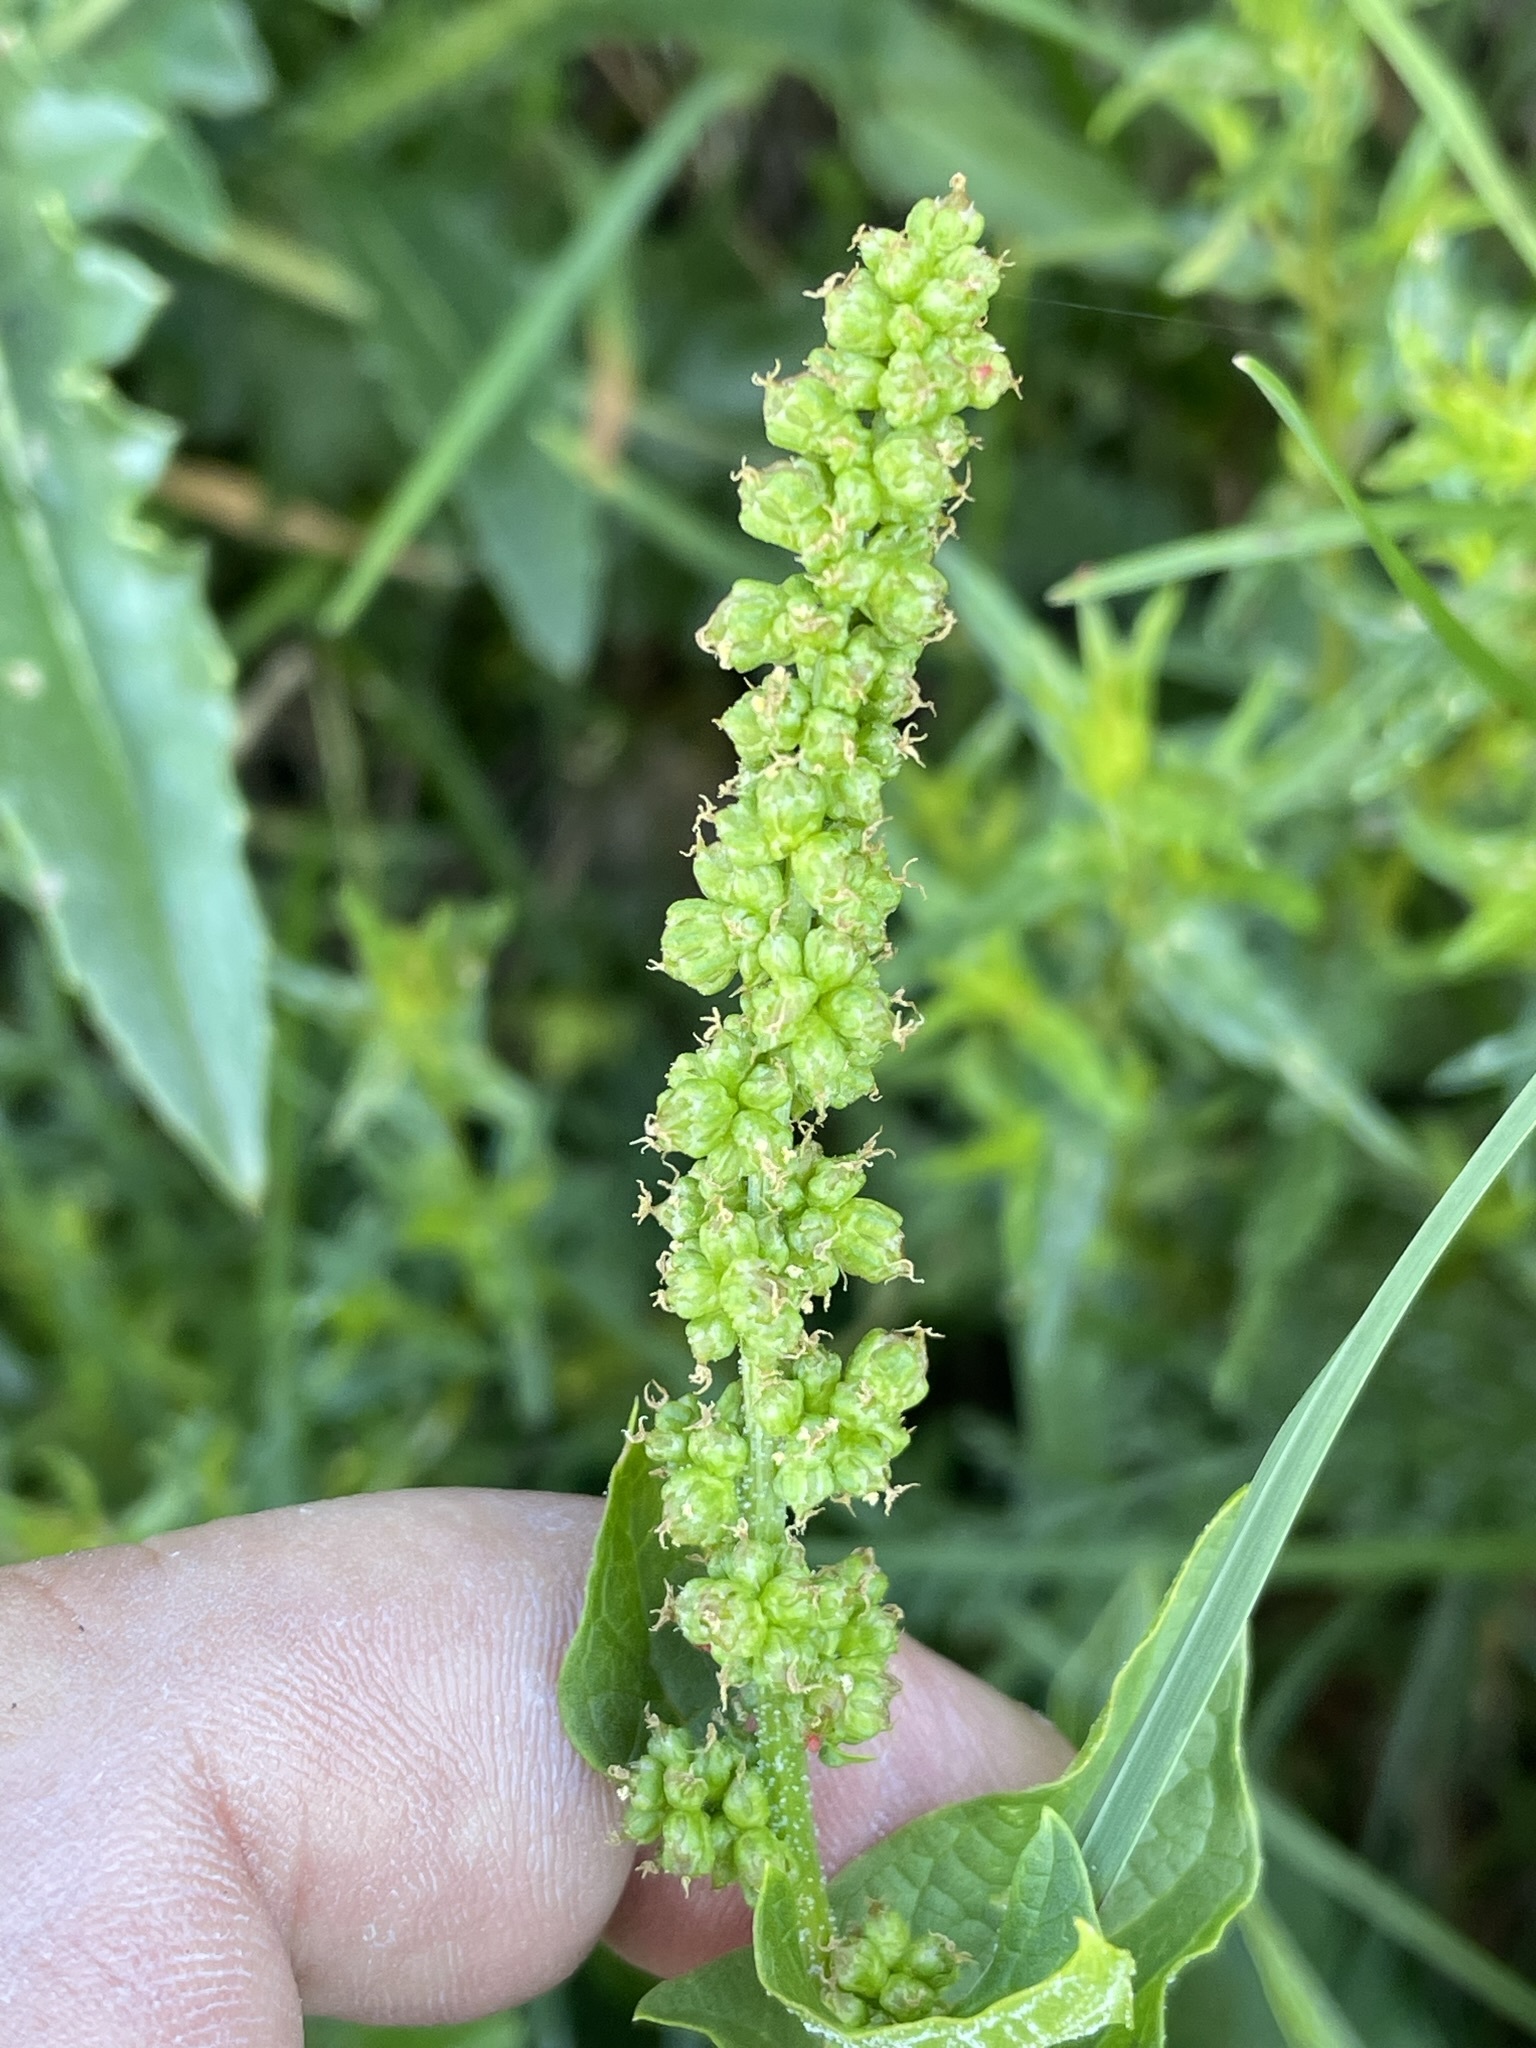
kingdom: Plantae
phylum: Tracheophyta
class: Magnoliopsida
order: Caryophyllales
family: Amaranthaceae
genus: Blitum
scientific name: Blitum bonus-henricus
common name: Good king henry
